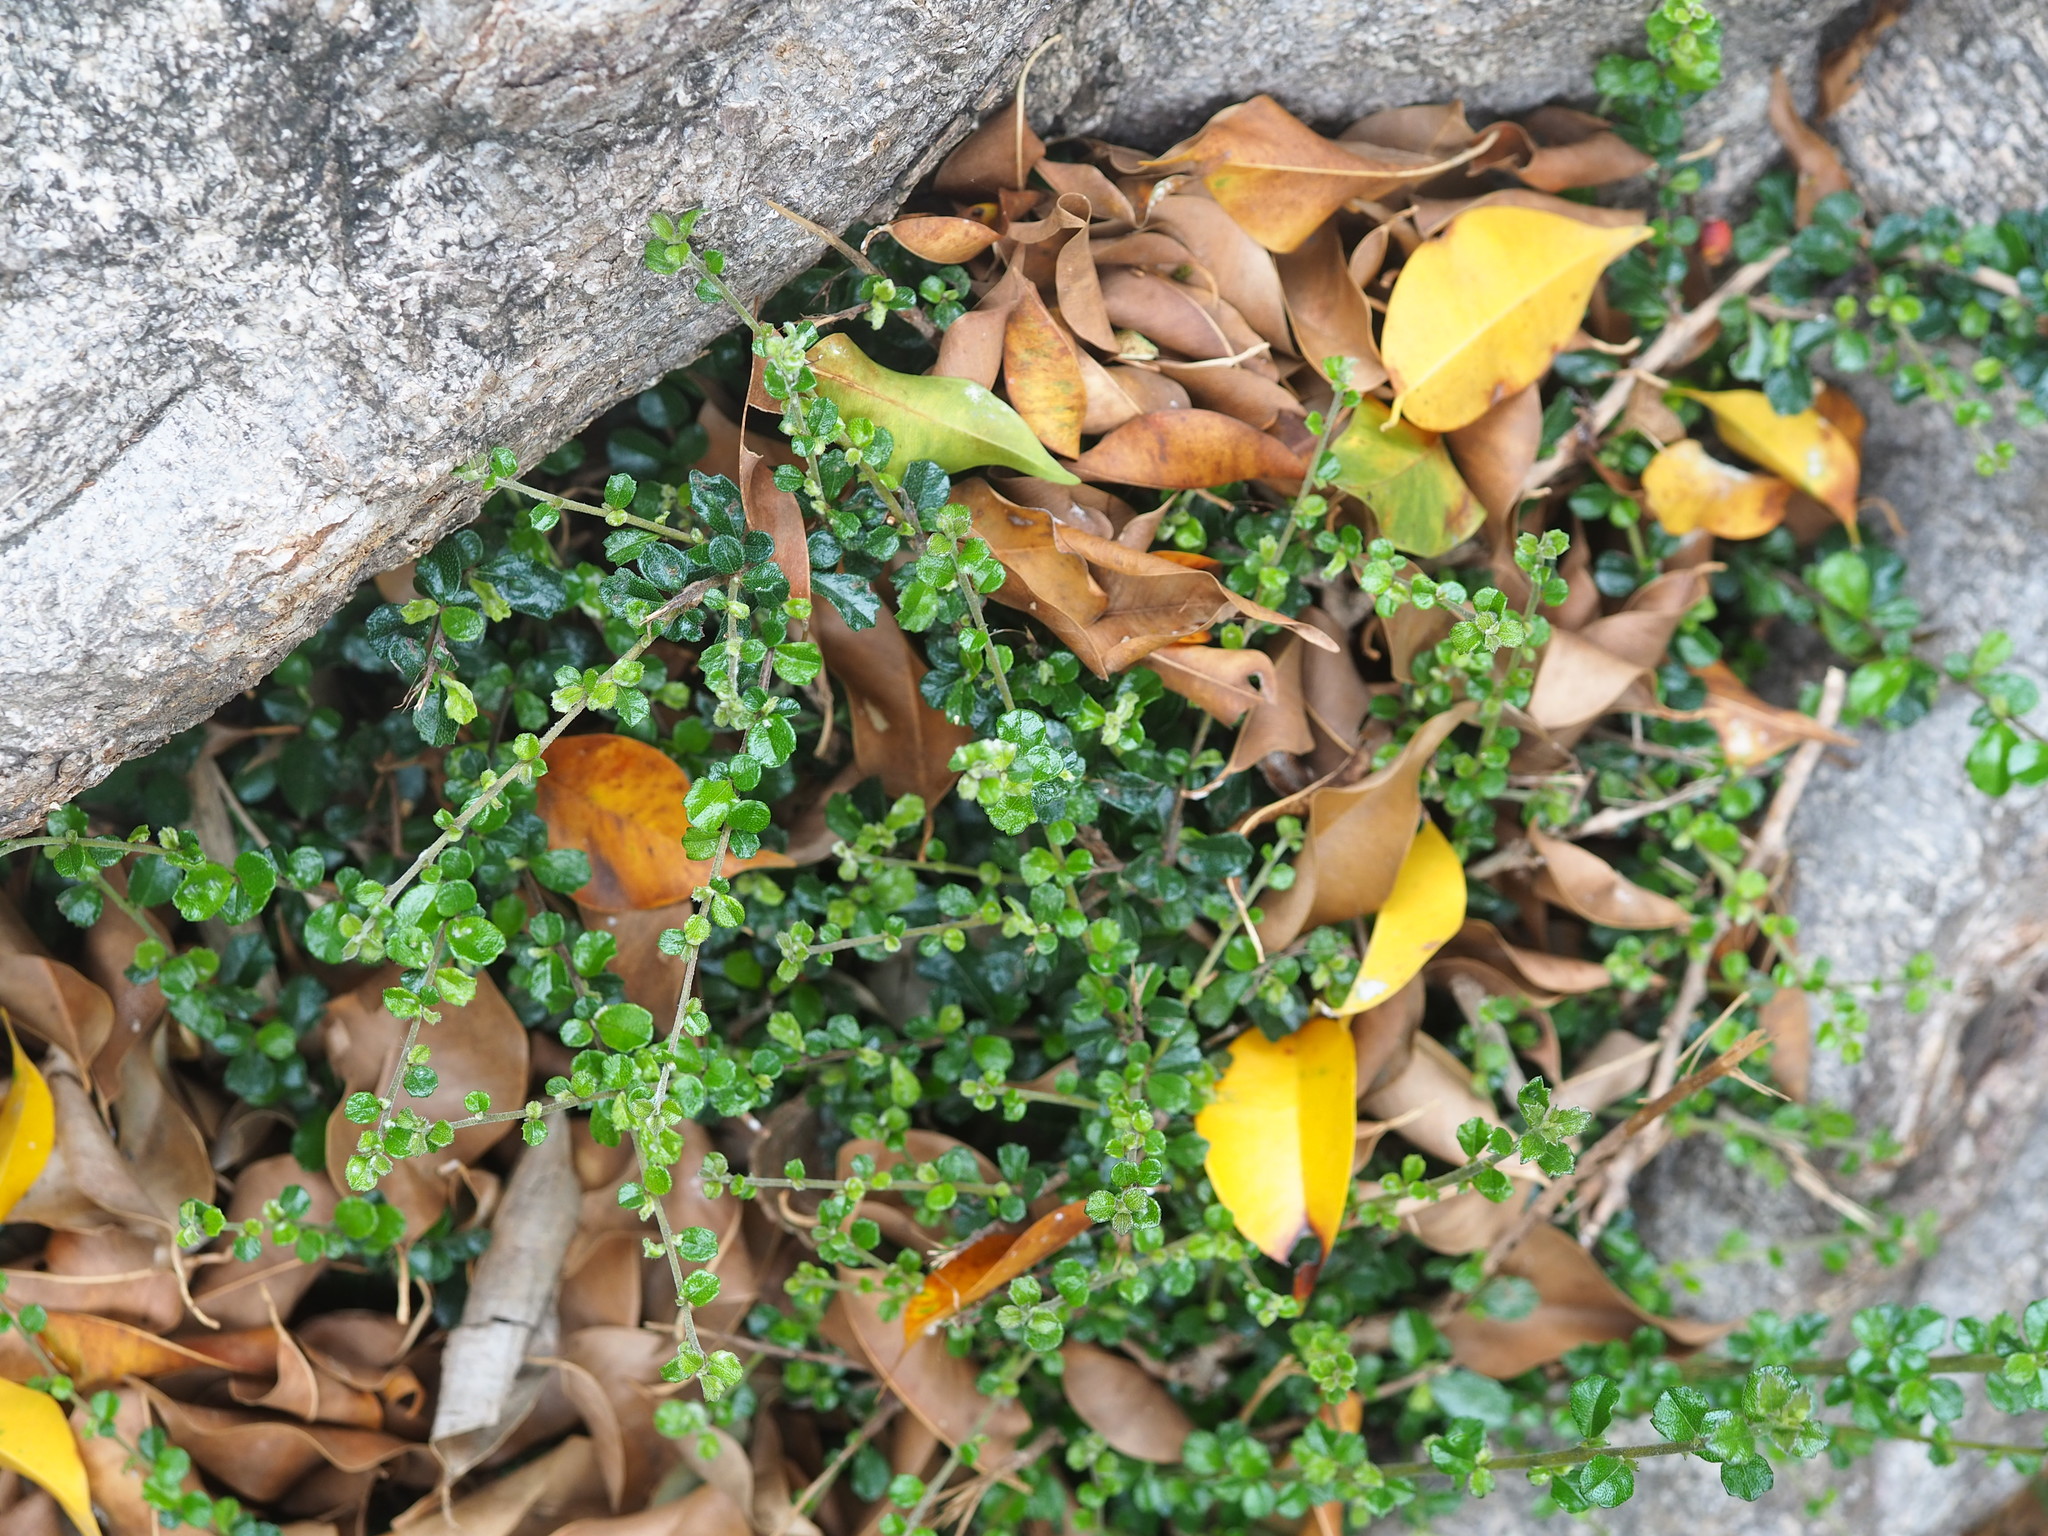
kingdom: Plantae
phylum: Tracheophyta
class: Magnoliopsida
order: Boraginales
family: Ehretiaceae
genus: Ehretia
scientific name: Ehretia microphylla
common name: Fukien-tea
